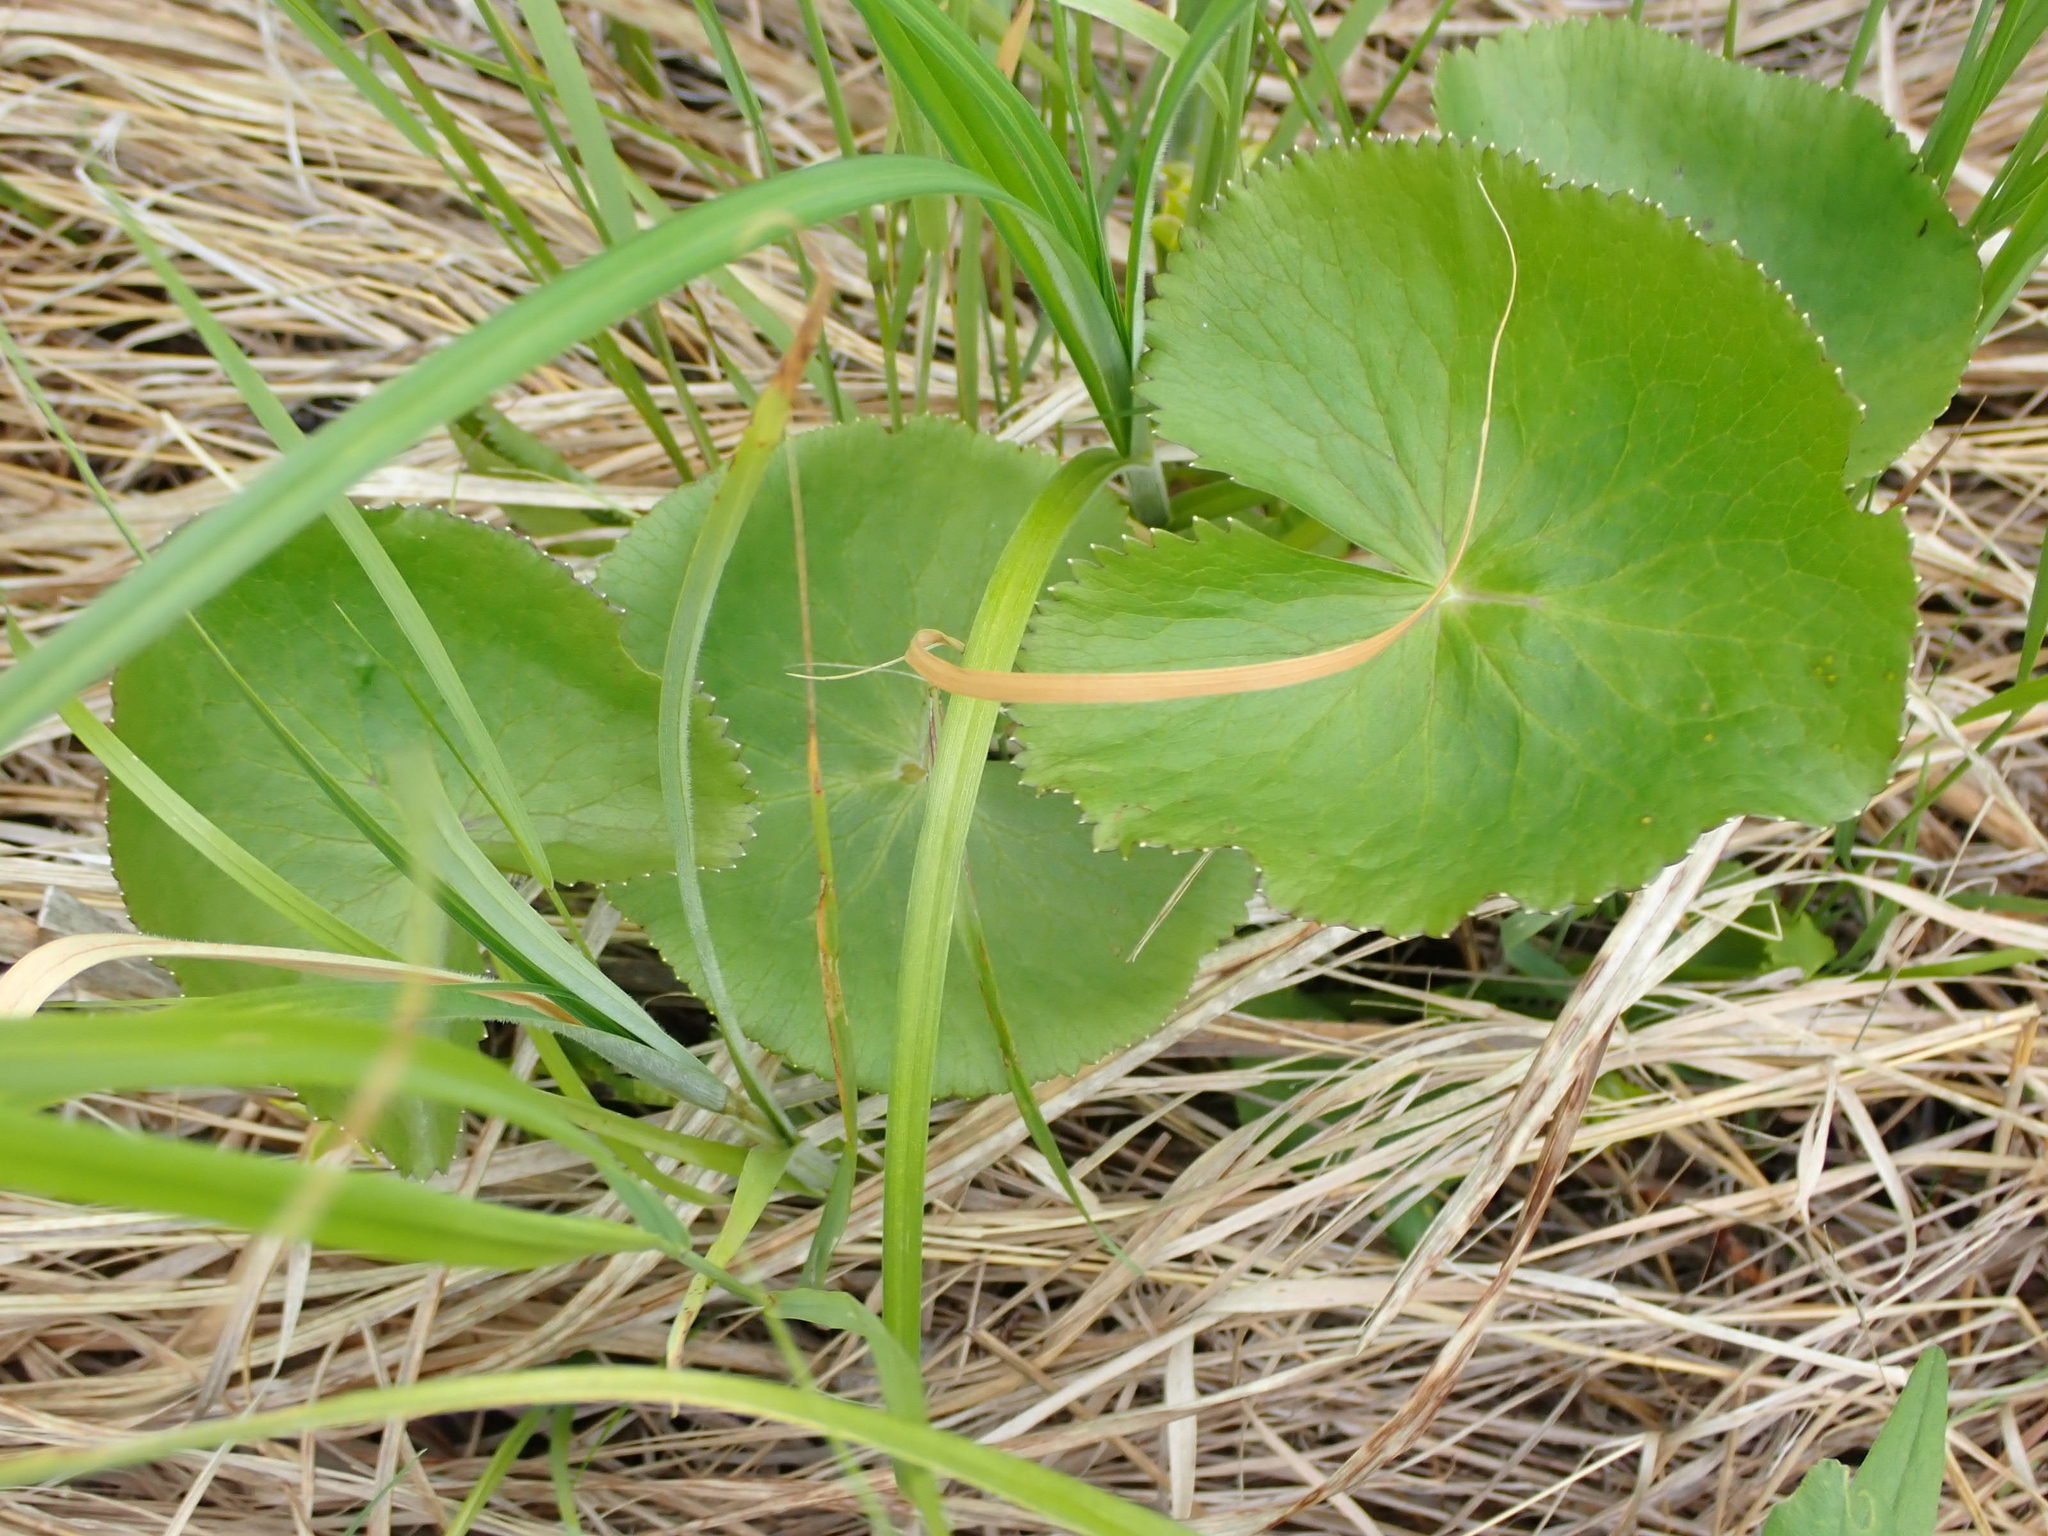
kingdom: Plantae
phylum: Tracheophyta
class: Magnoliopsida
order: Ranunculales
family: Ranunculaceae
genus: Caltha
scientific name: Caltha palustris
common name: Marsh marigold
